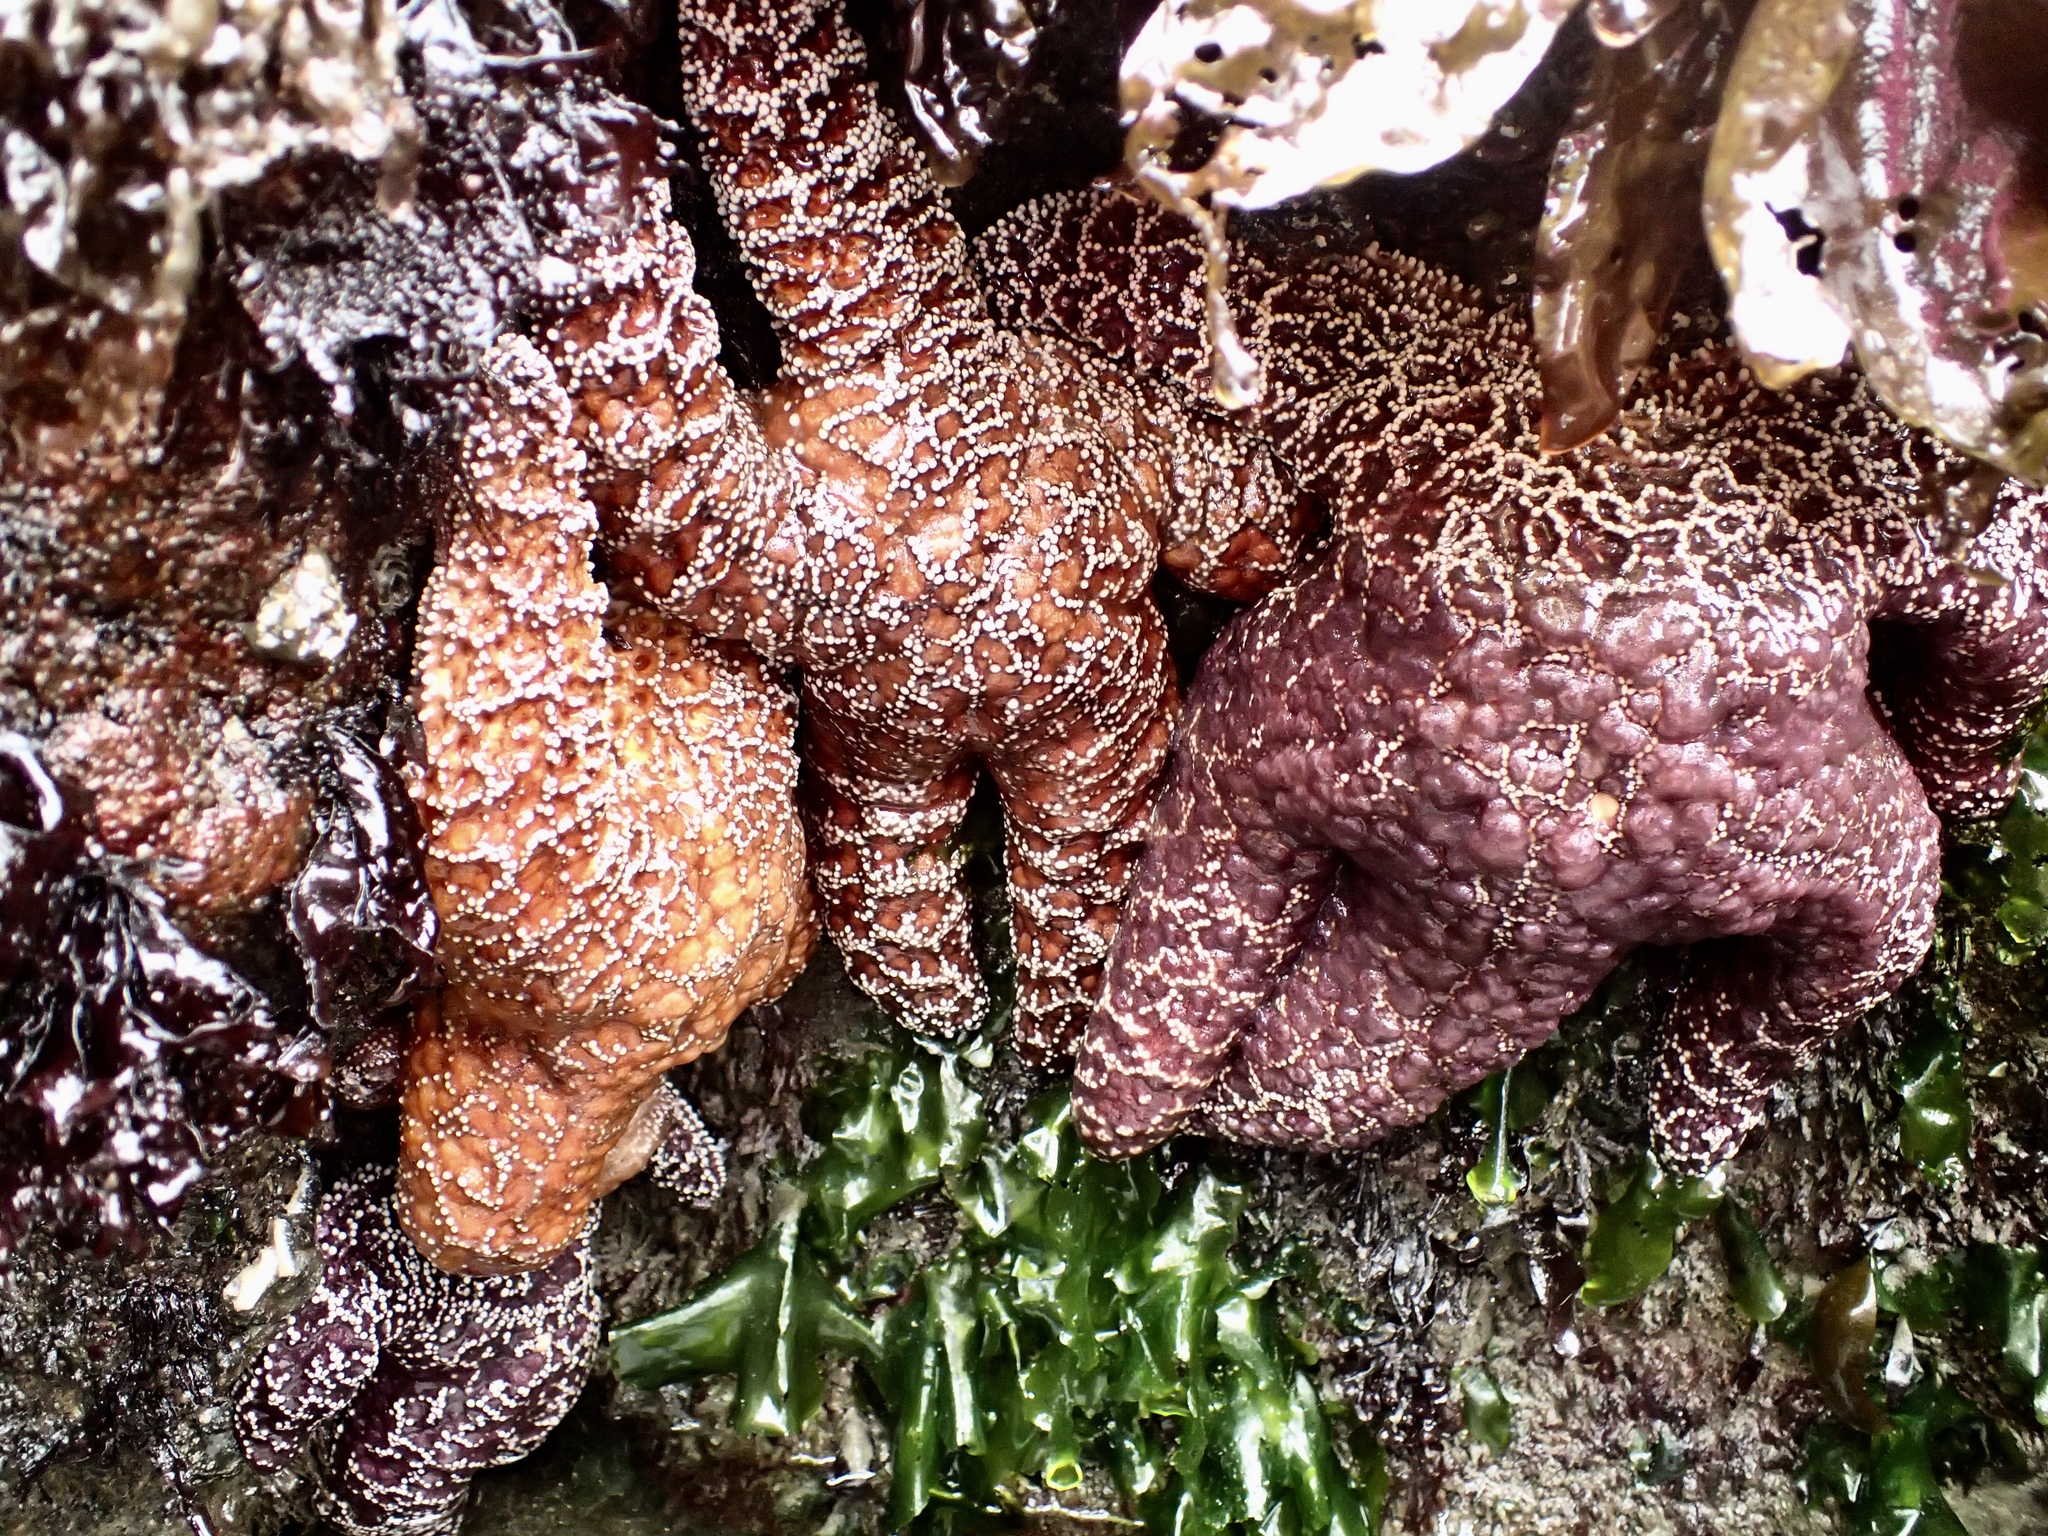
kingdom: Animalia
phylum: Echinodermata
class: Asteroidea
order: Forcipulatida
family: Asteriidae
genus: Pisaster
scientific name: Pisaster ochraceus
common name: Ochre stars
